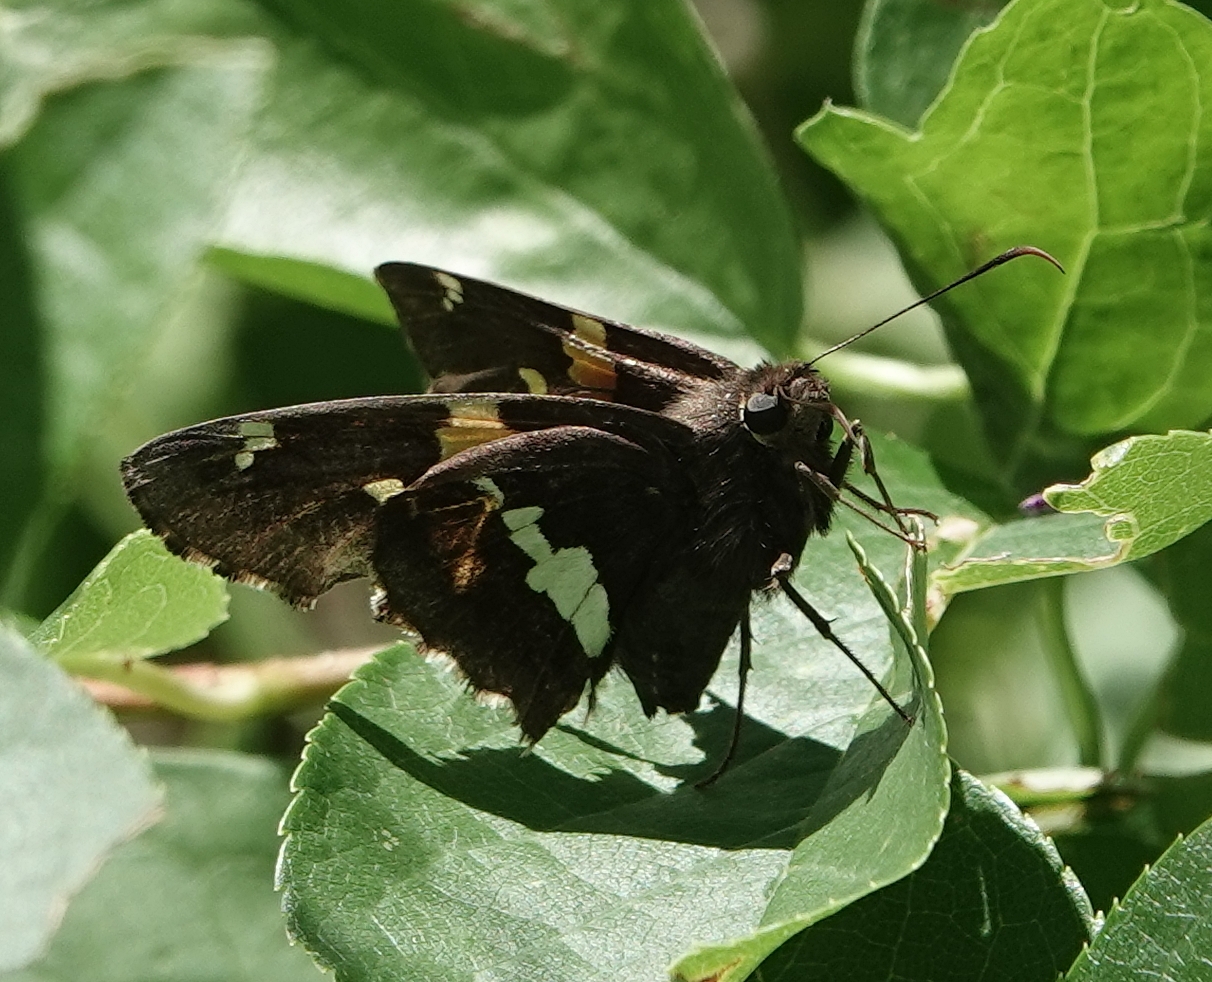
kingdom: Animalia
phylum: Arthropoda
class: Insecta
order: Lepidoptera
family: Hesperiidae
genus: Epargyreus
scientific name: Epargyreus clarus
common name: Silver-spotted skipper
